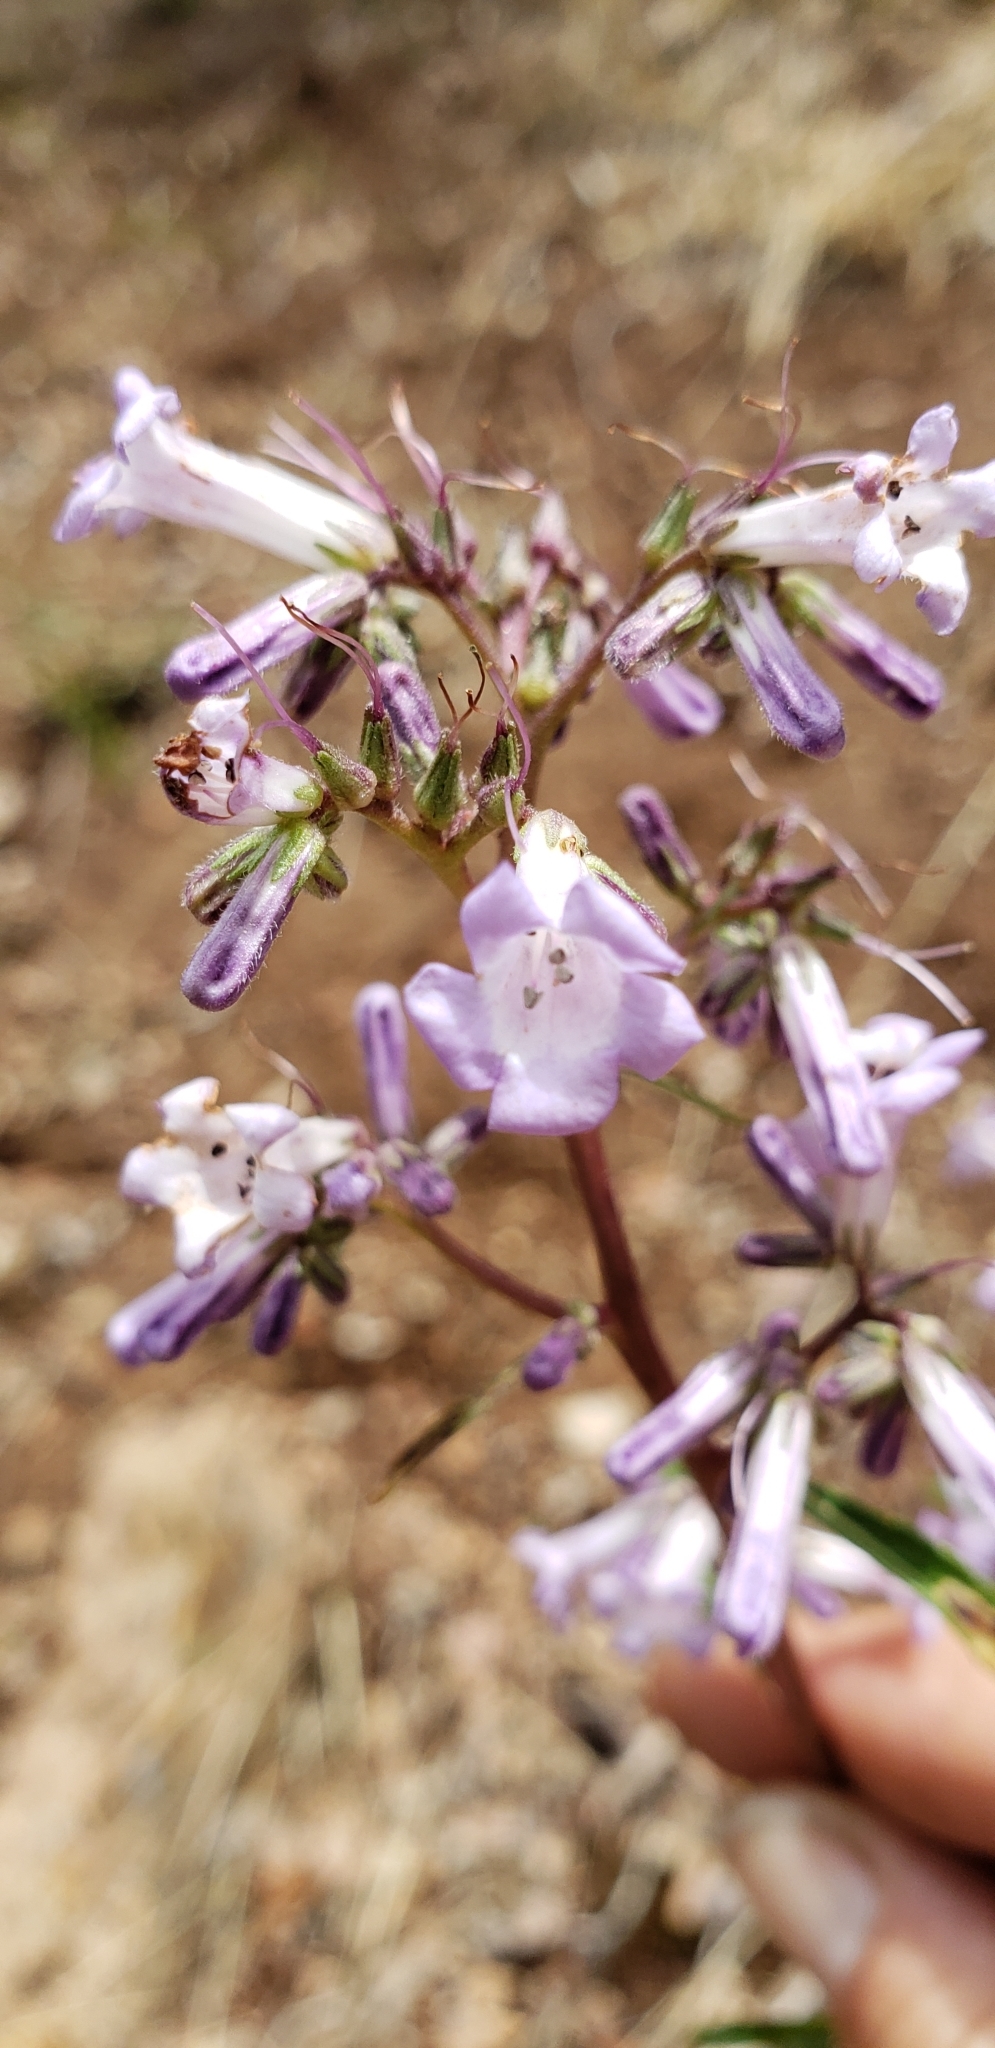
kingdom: Plantae
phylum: Tracheophyta
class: Magnoliopsida
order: Boraginales
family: Namaceae
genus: Eriodictyon
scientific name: Eriodictyon californicum
